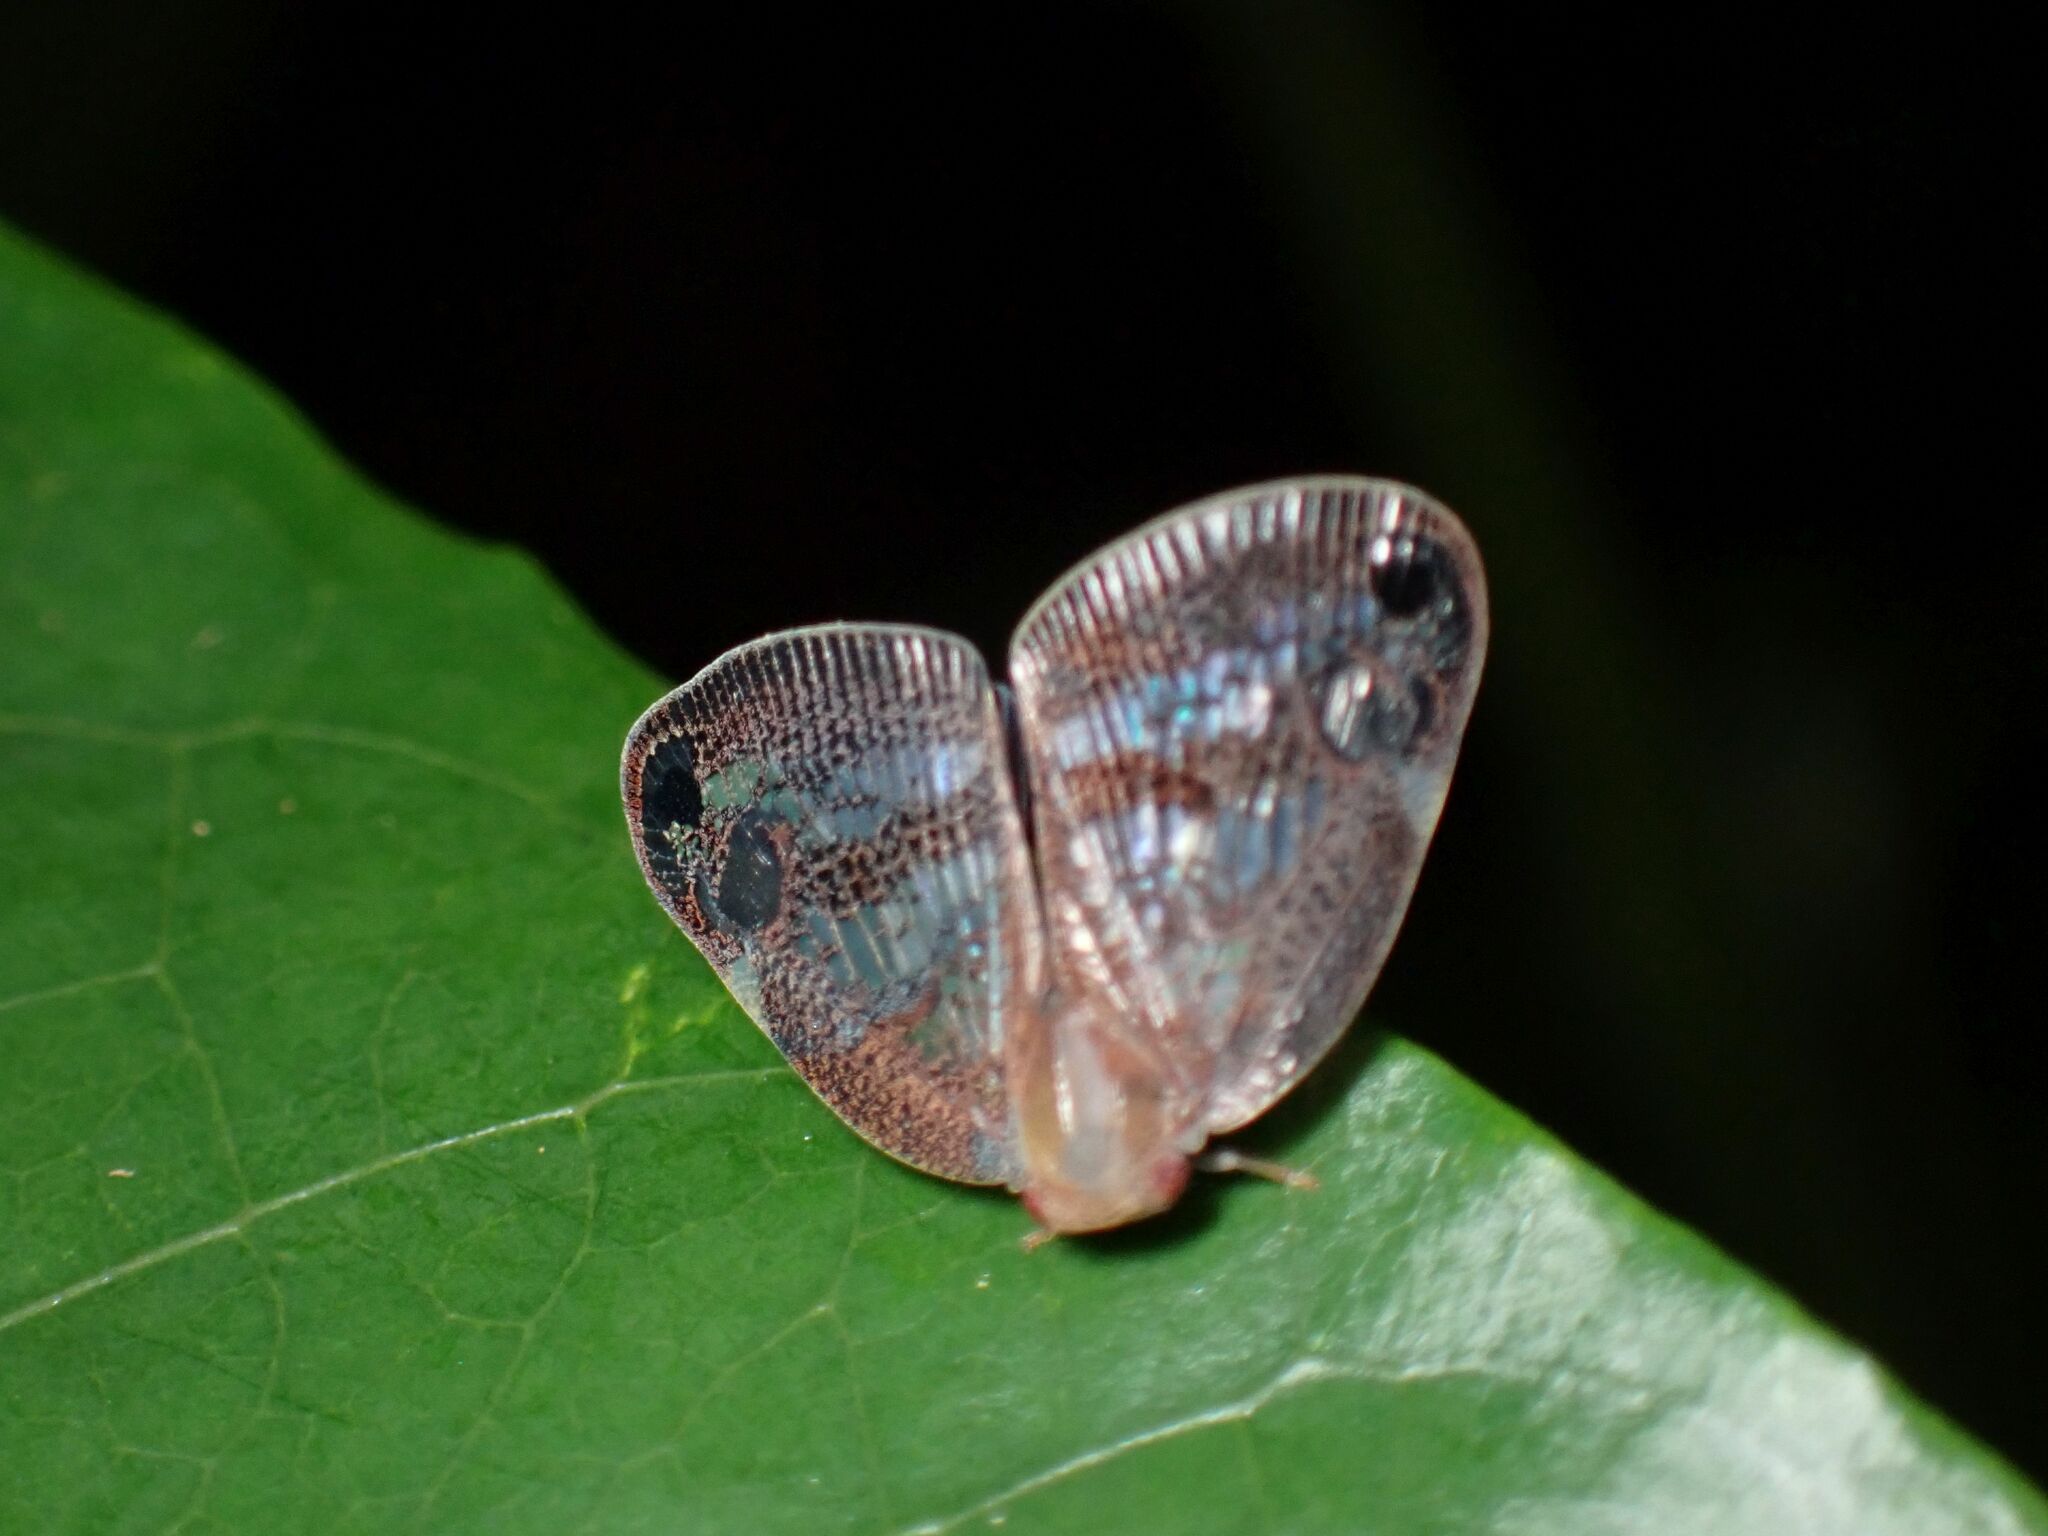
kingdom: Animalia
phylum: Arthropoda
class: Insecta
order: Hemiptera
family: Ricaniidae
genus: Parapiromis
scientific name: Parapiromis translucida
